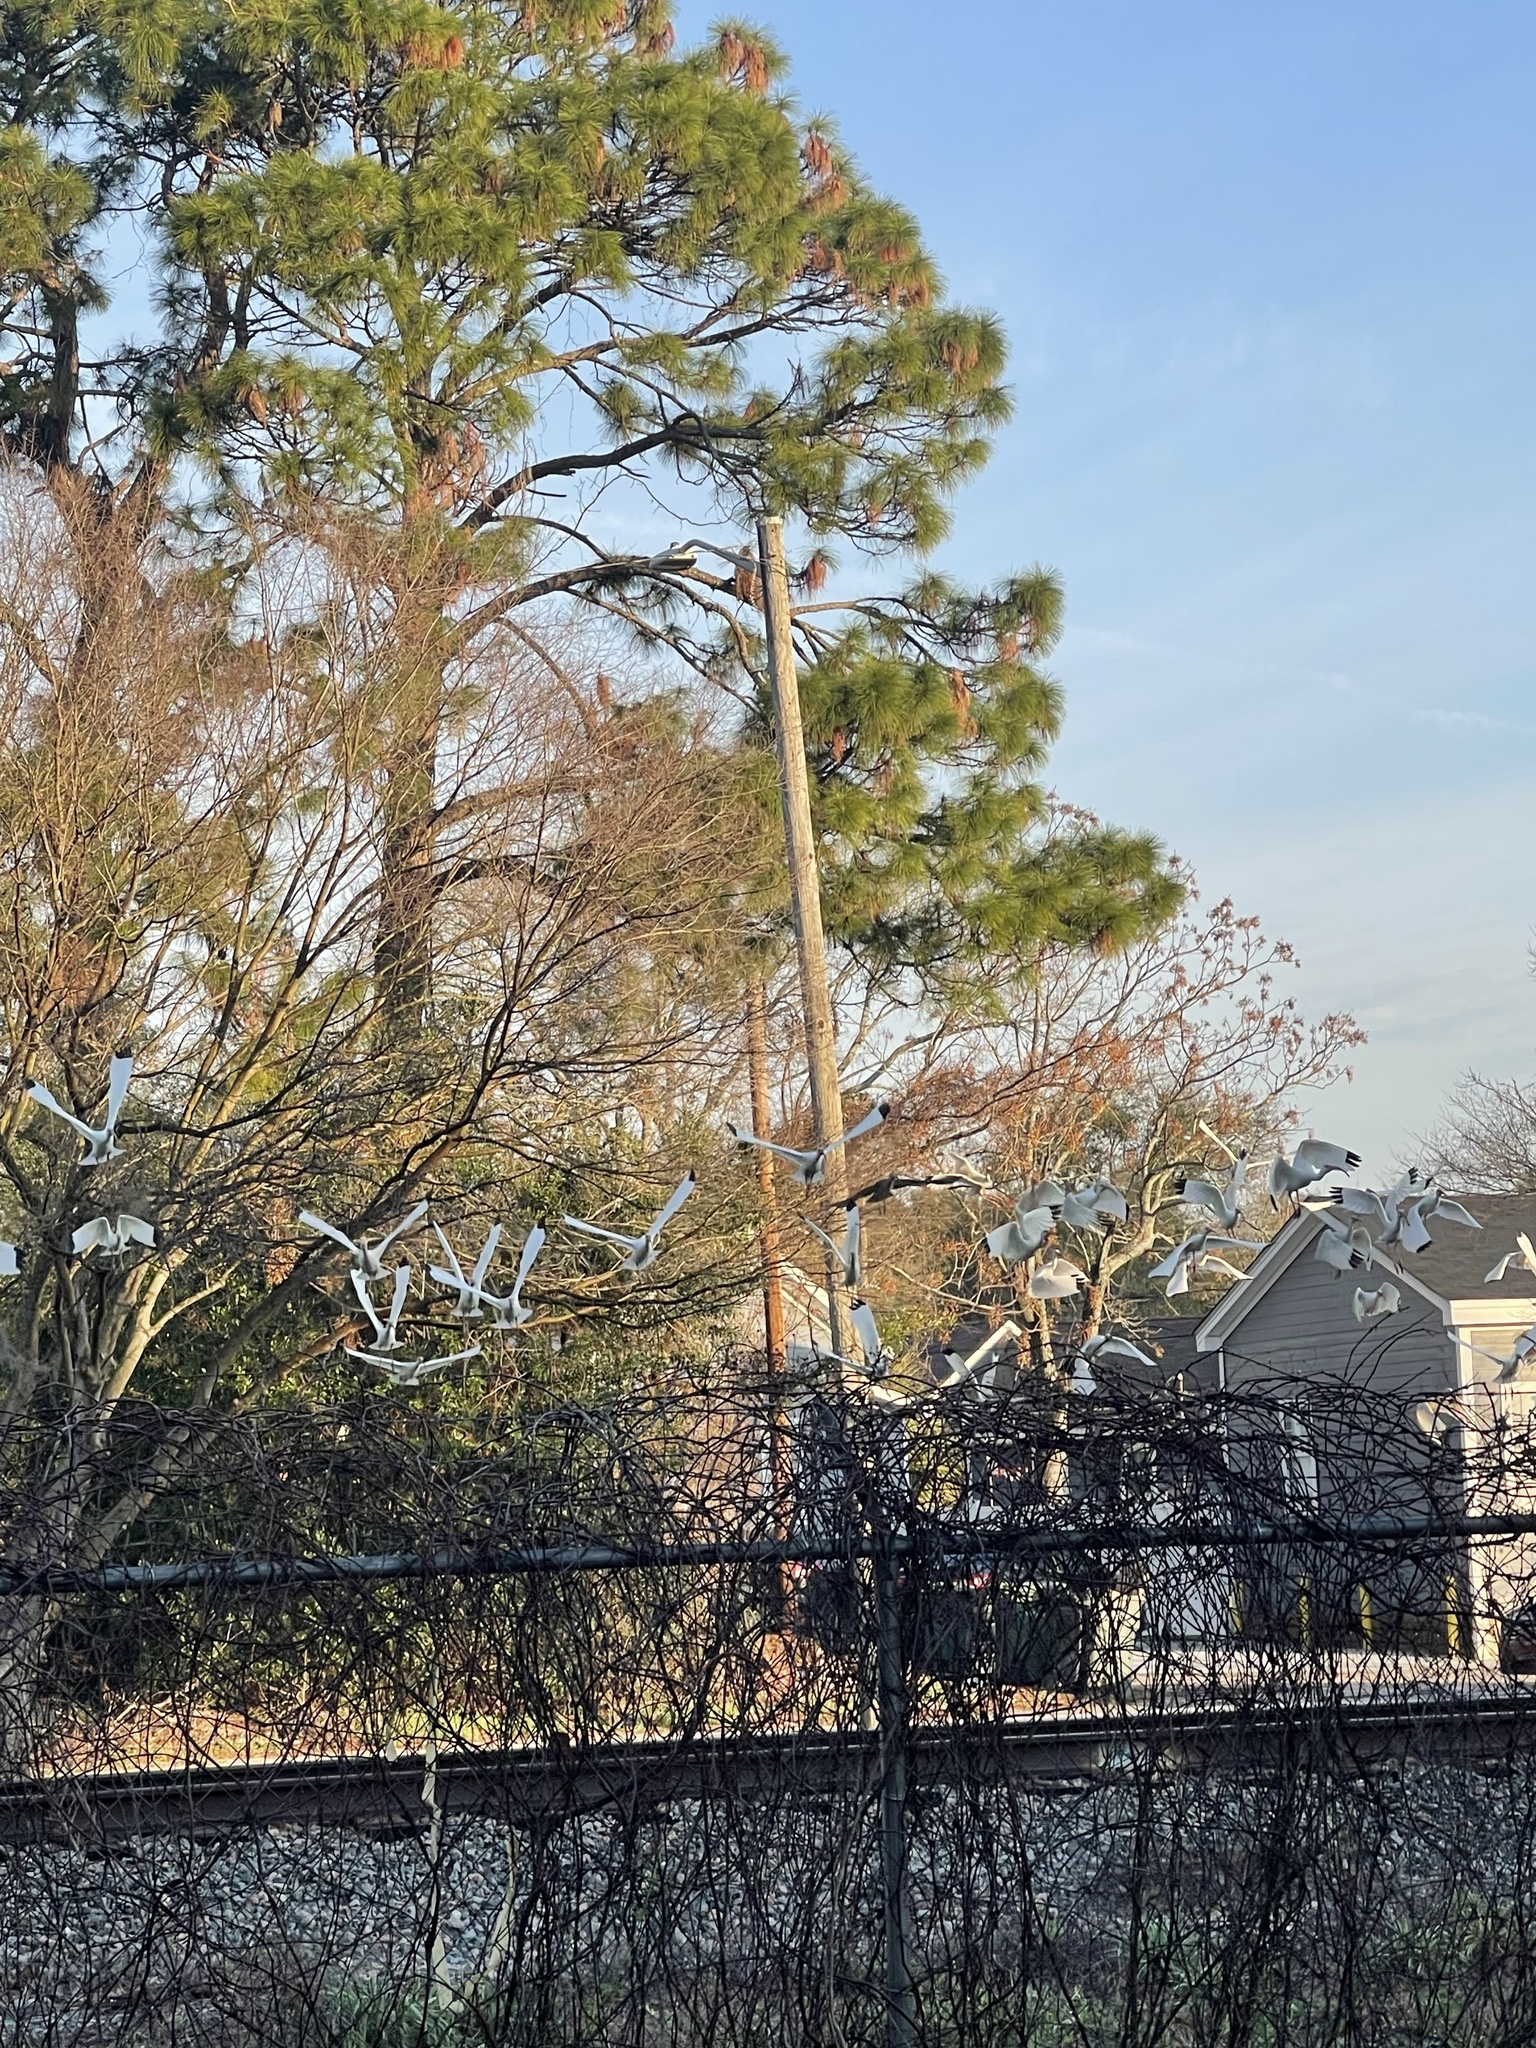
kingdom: Animalia
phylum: Chordata
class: Aves
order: Pelecaniformes
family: Threskiornithidae
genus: Eudocimus
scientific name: Eudocimus albus
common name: White ibis
